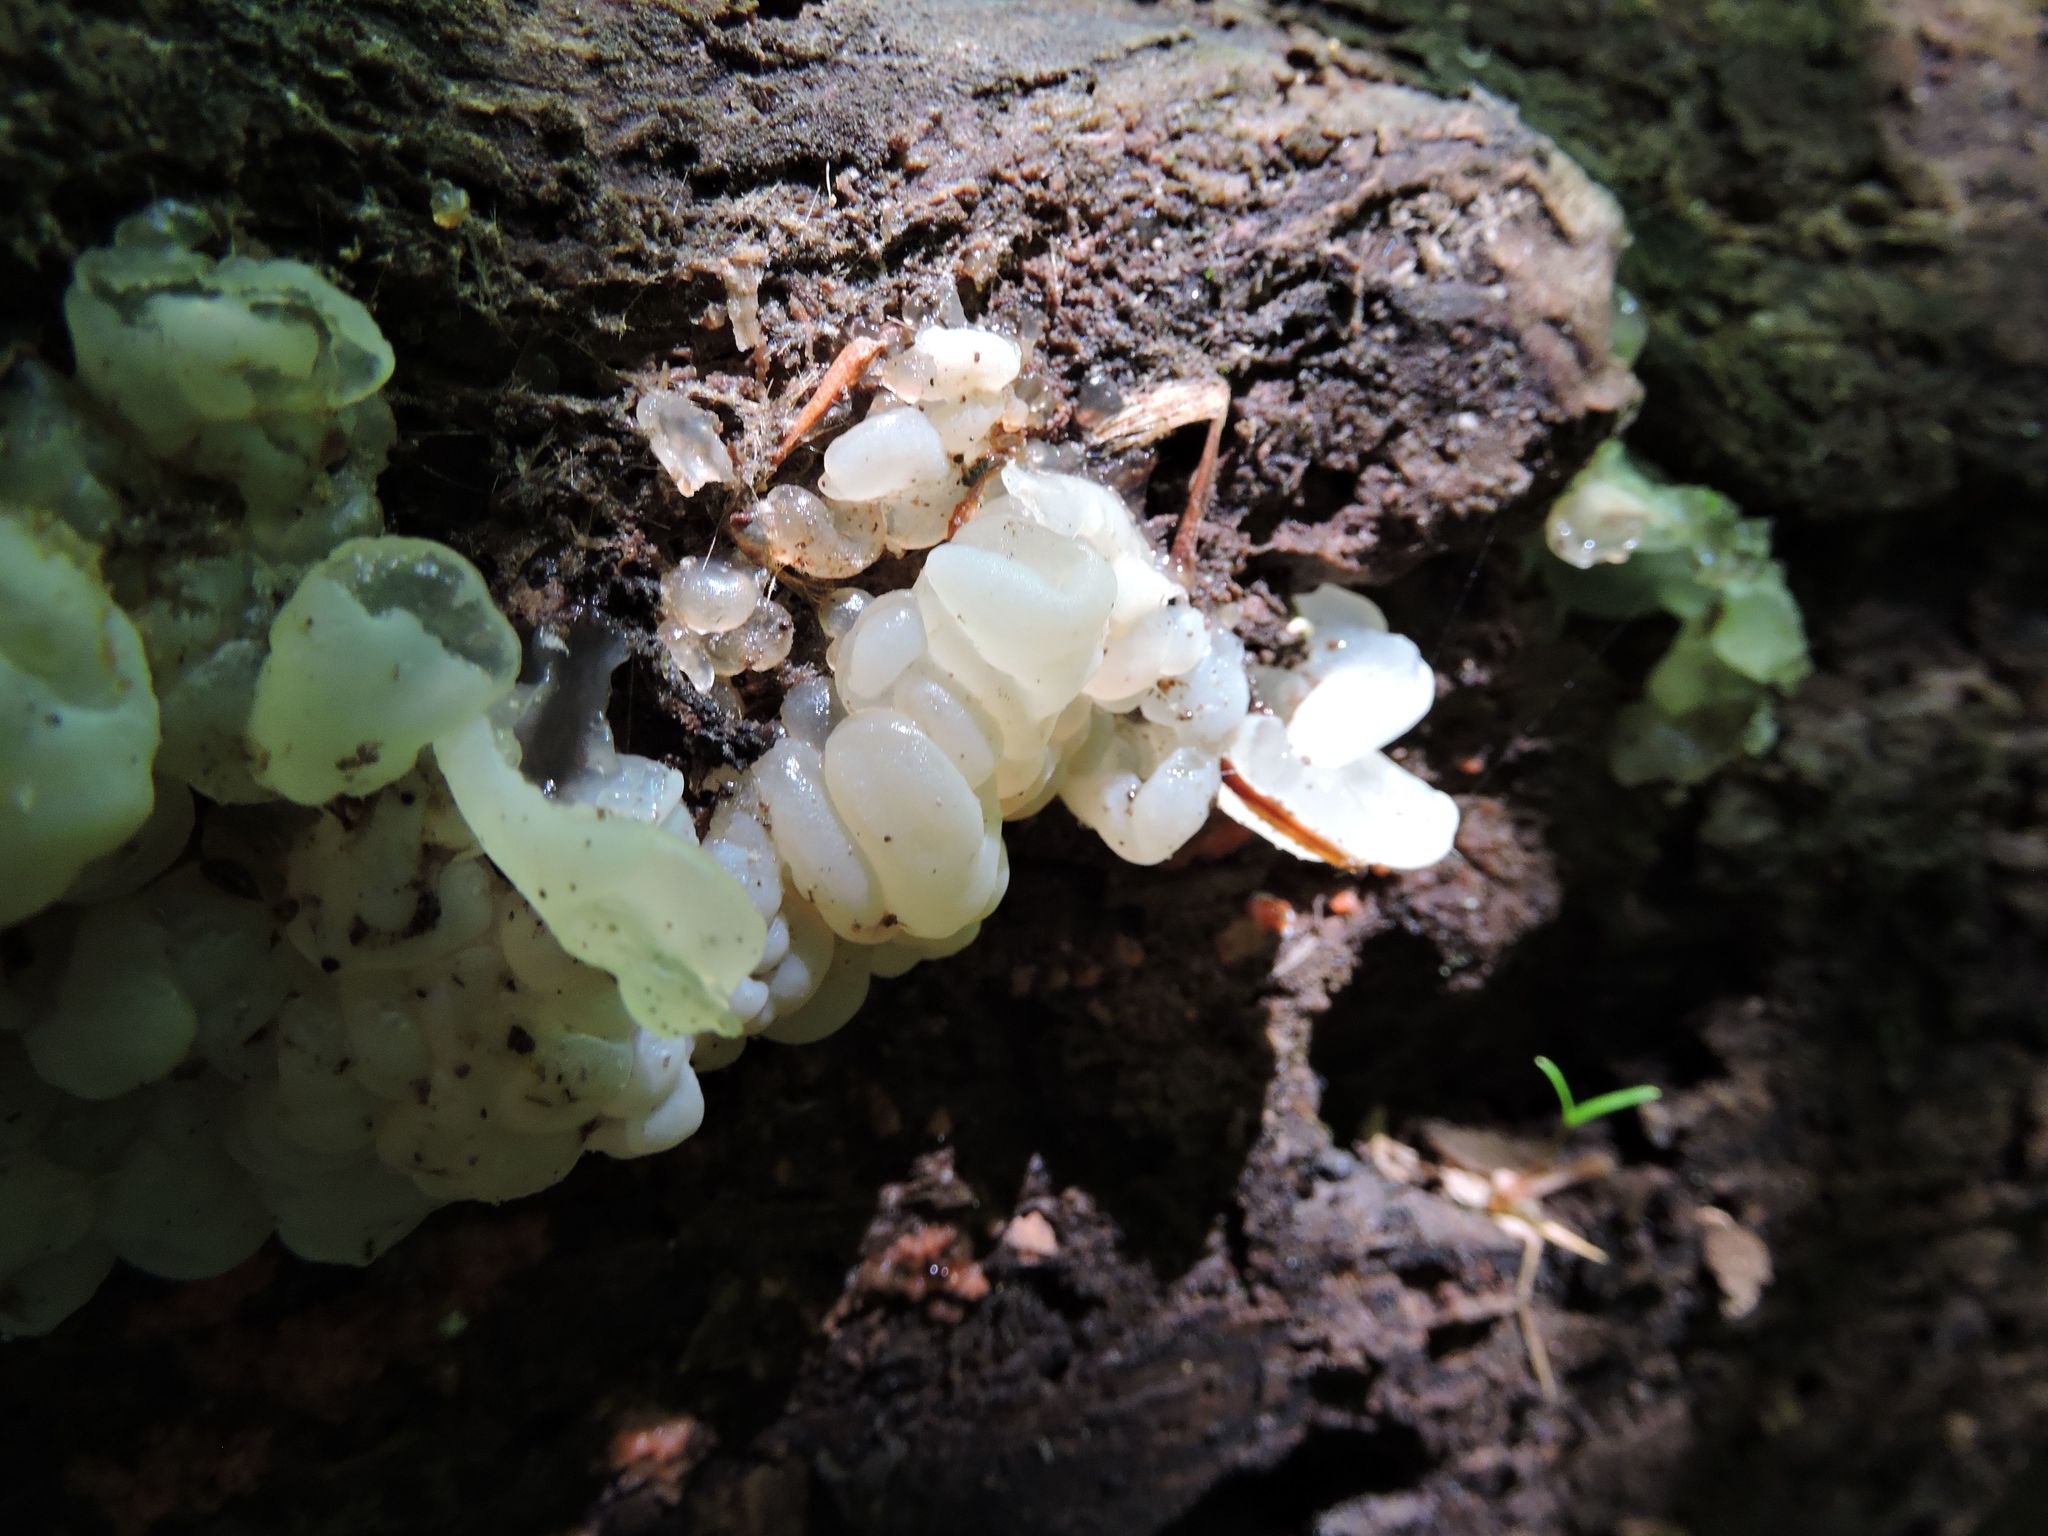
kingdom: Fungi
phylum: Basidiomycota
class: Agaricomycetes
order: Auriculariales
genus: Ductifera
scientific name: Ductifera pululahuana
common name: White jelly fungus
